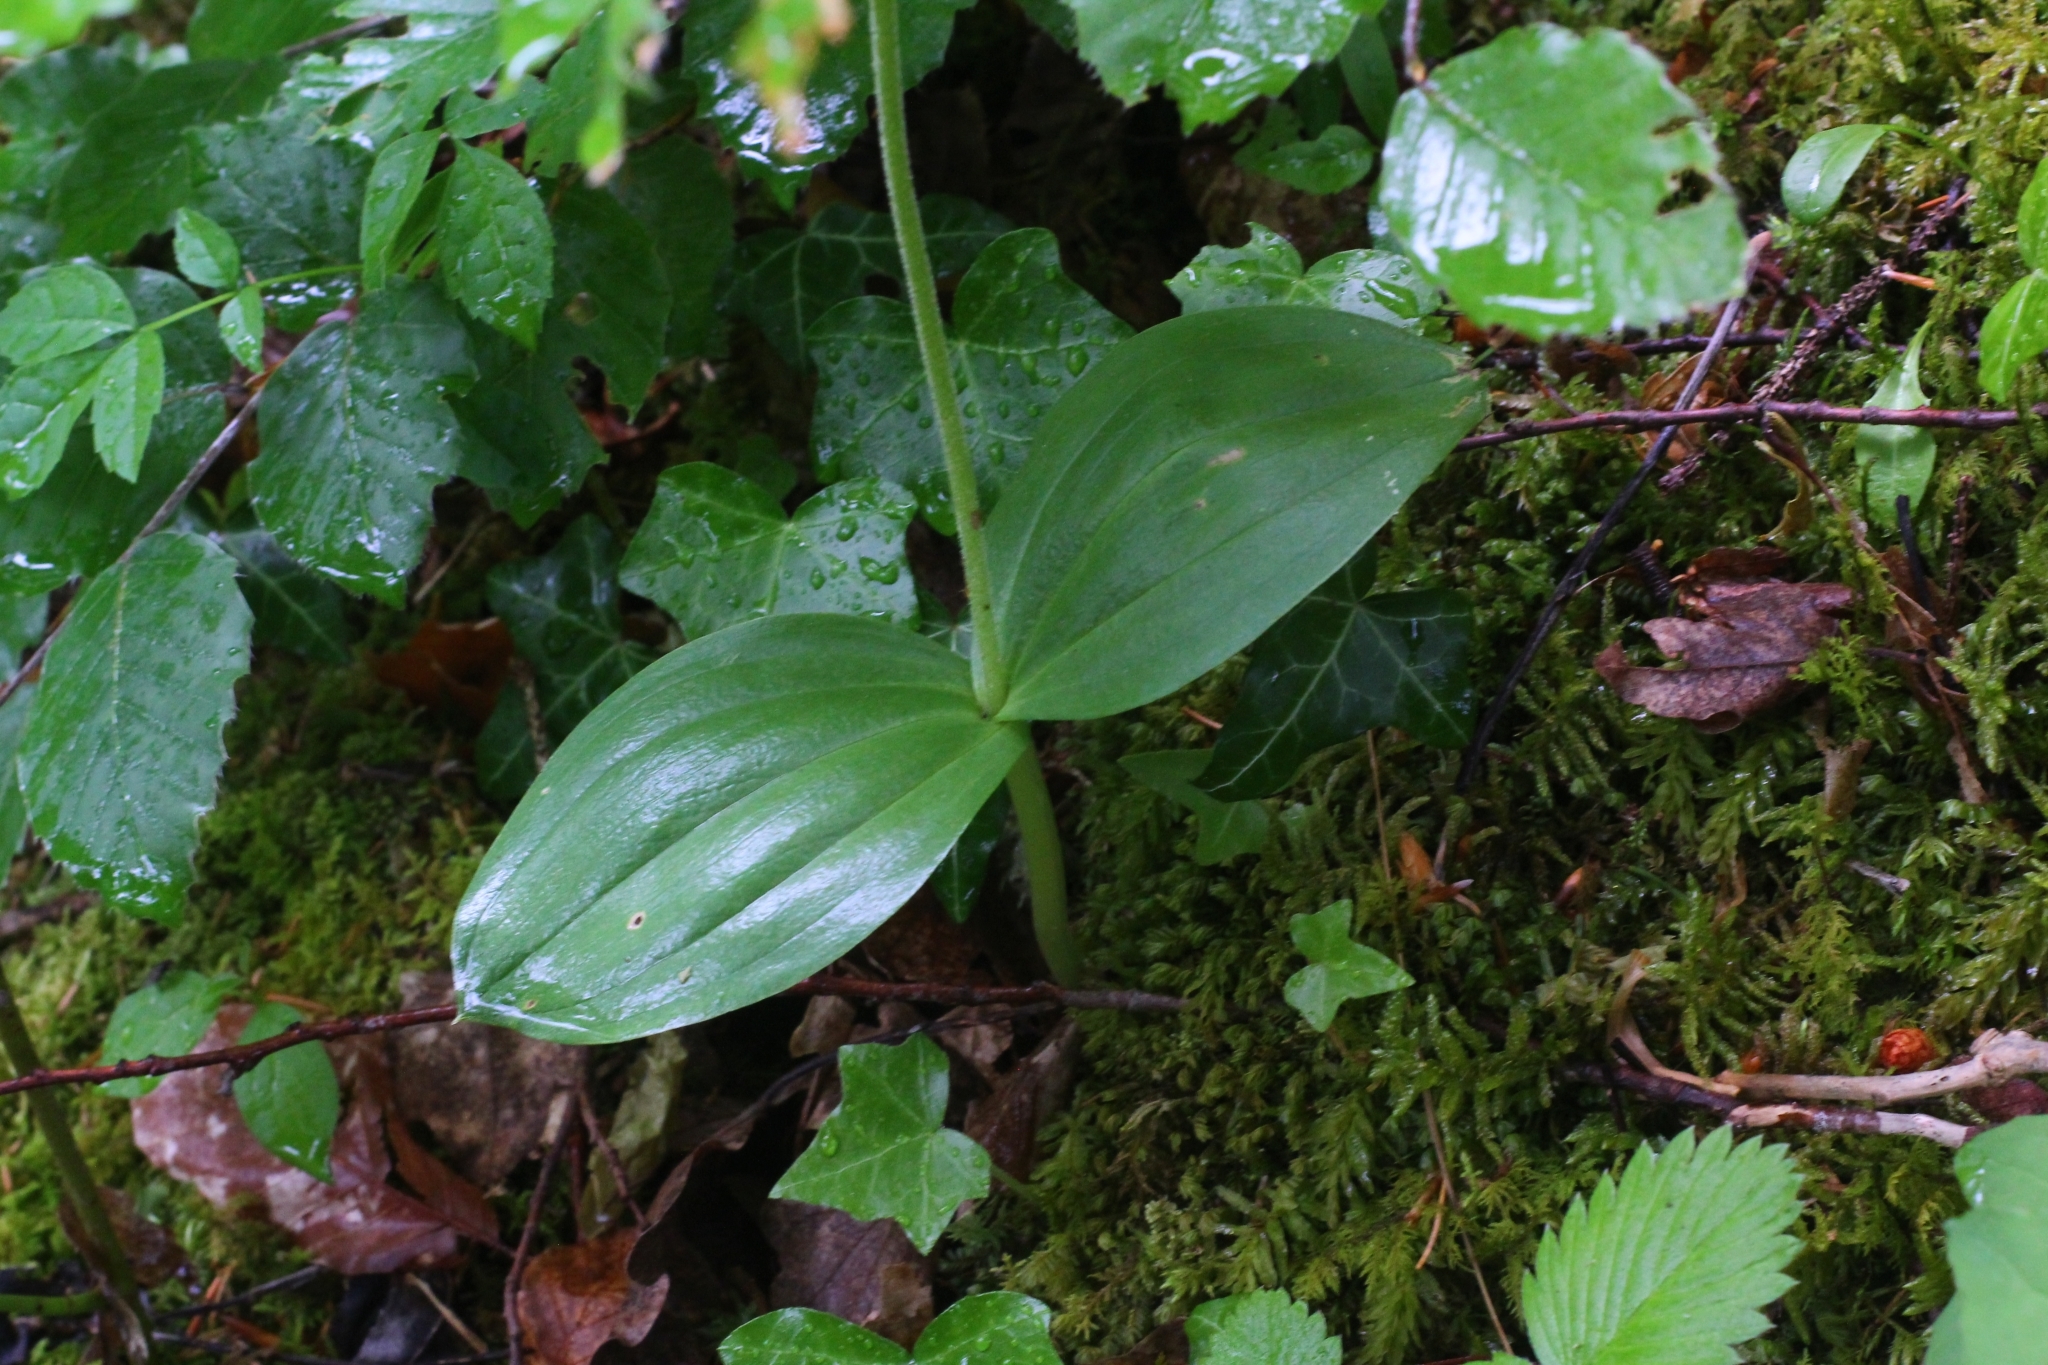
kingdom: Plantae
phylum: Tracheophyta
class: Liliopsida
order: Asparagales
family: Orchidaceae
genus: Neottia
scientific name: Neottia ovata
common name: Common twayblade
